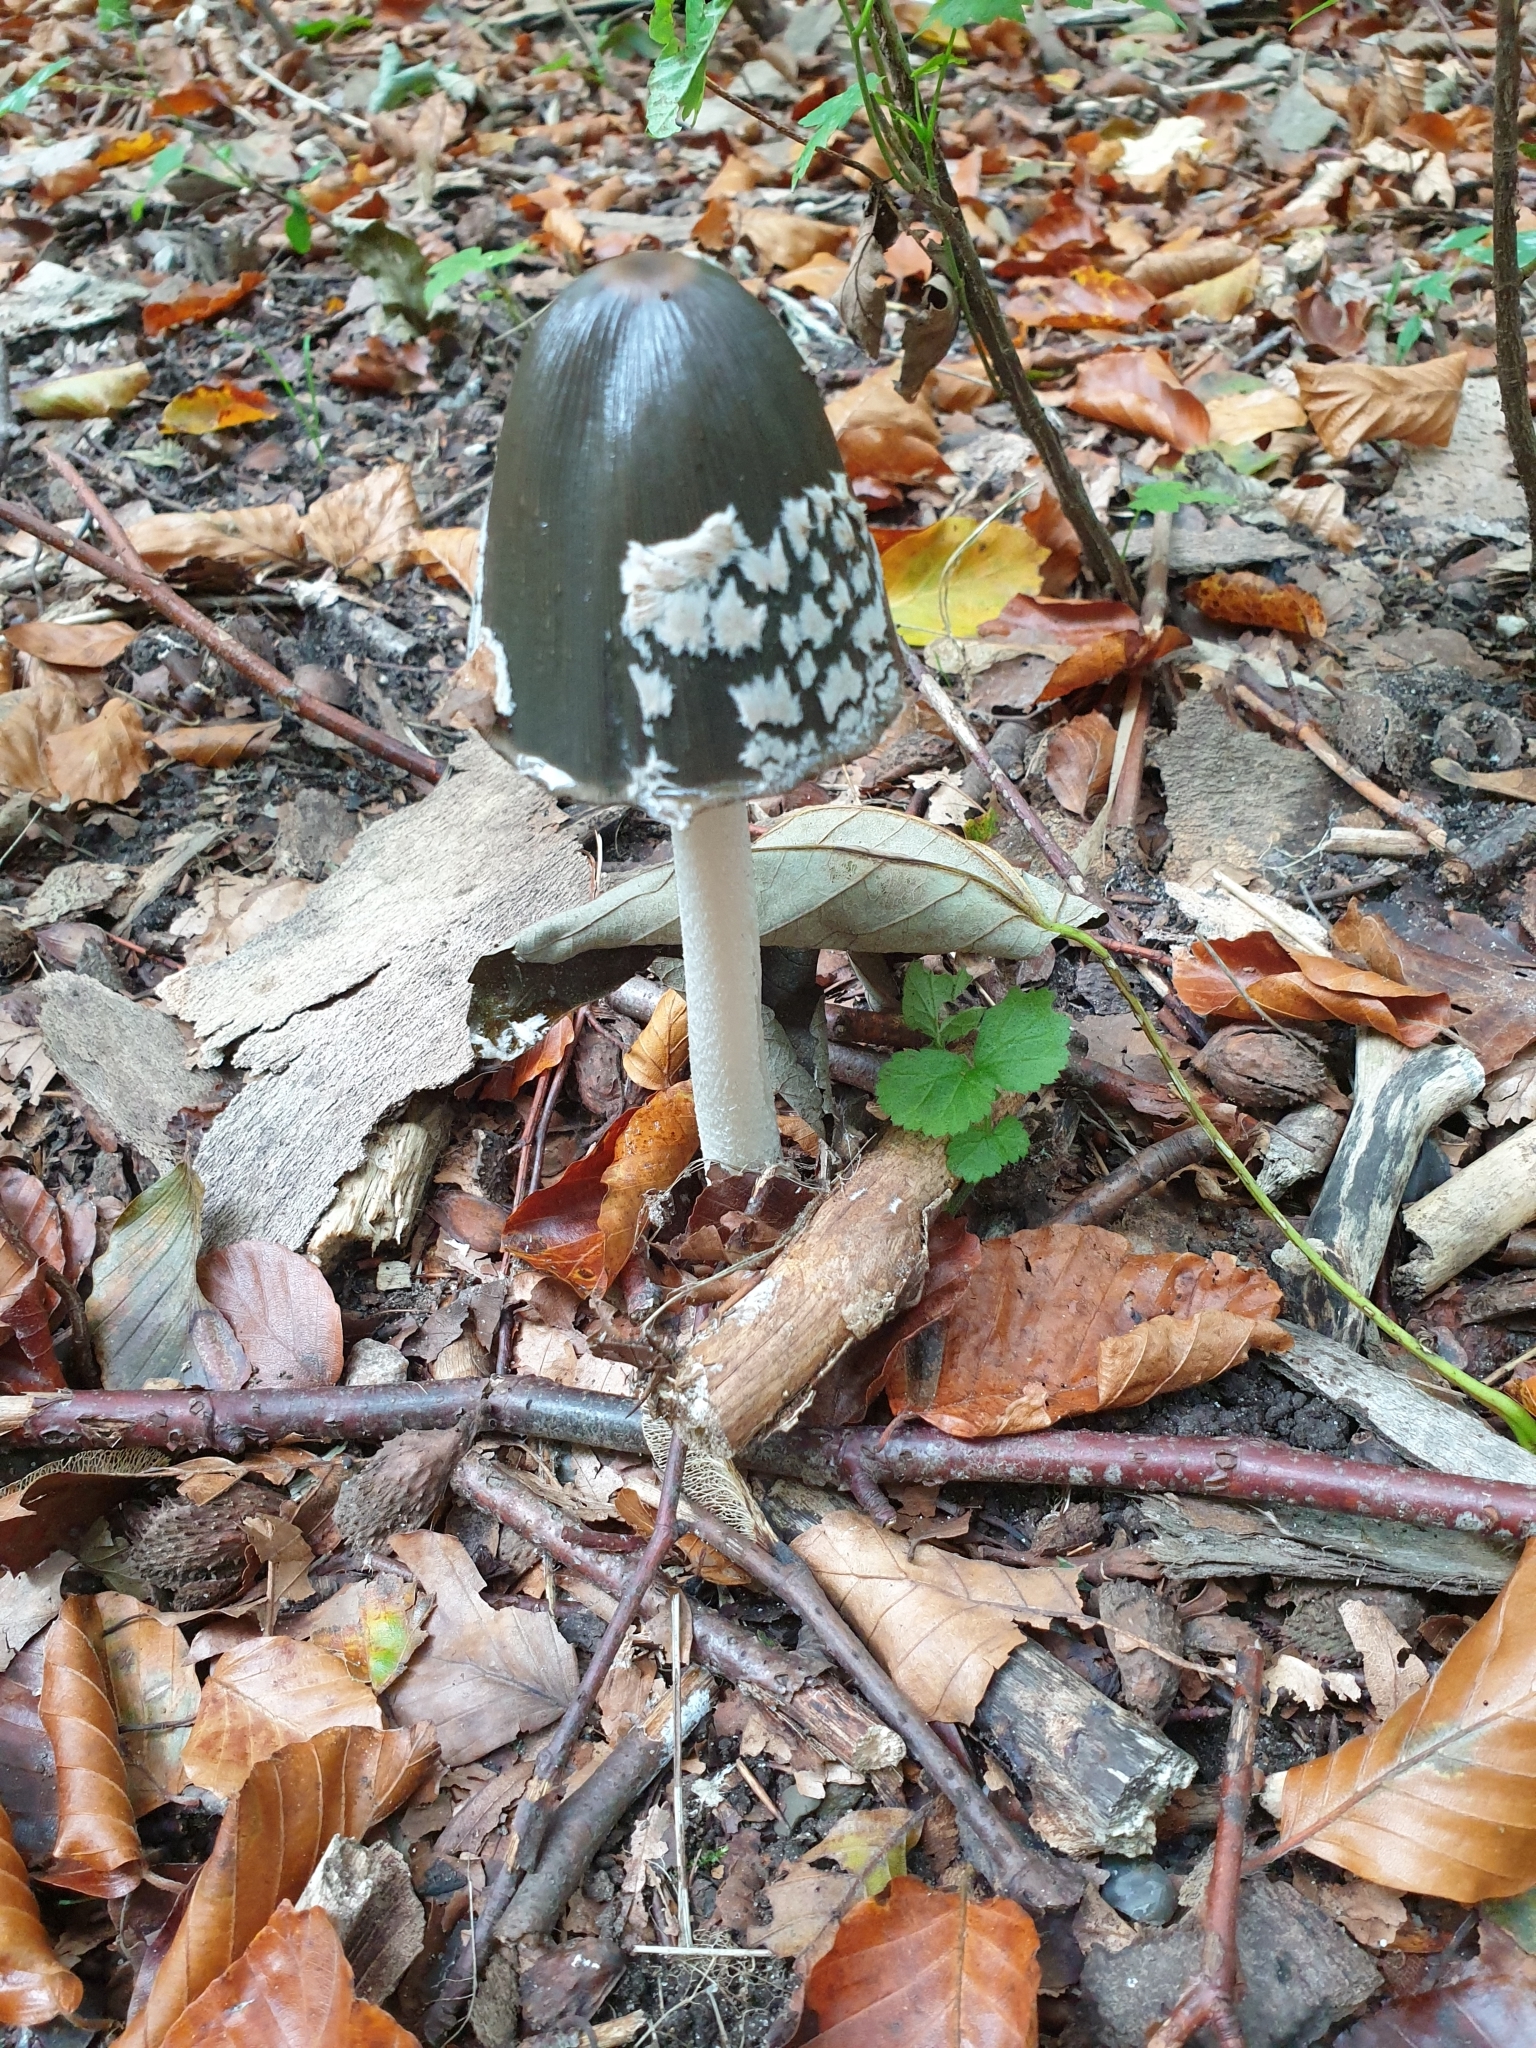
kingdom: Fungi
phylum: Basidiomycota
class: Agaricomycetes
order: Agaricales
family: Psathyrellaceae
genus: Coprinopsis
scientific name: Coprinopsis picacea
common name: Magpie inkcap
